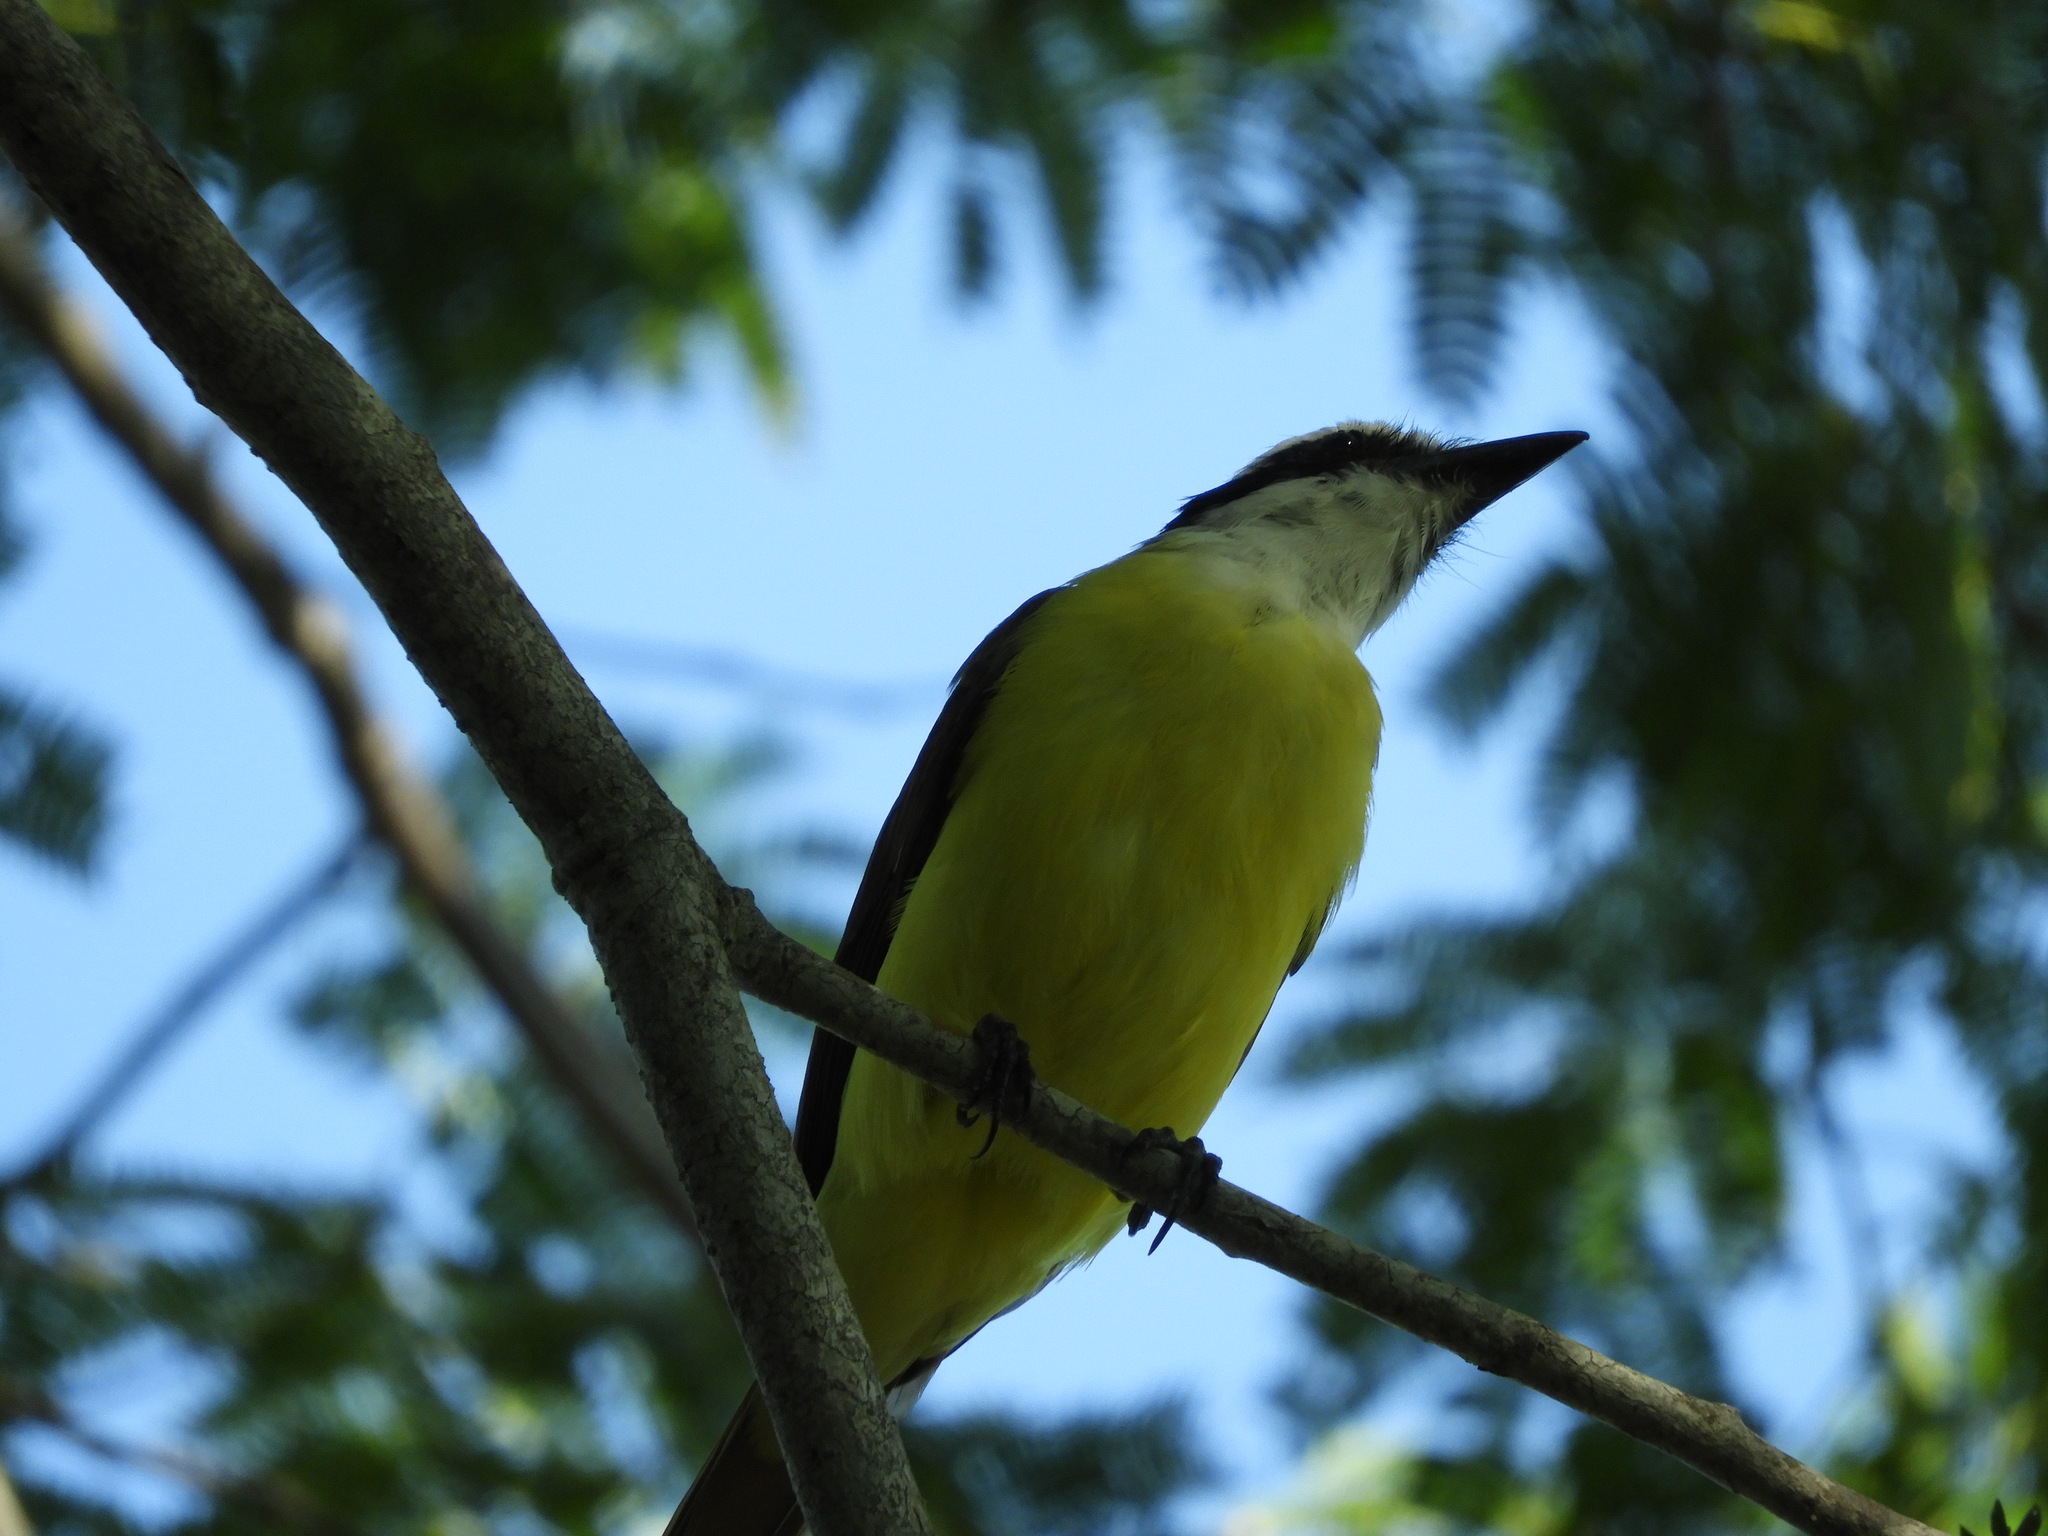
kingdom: Animalia
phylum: Chordata
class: Aves
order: Passeriformes
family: Tyrannidae
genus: Pitangus
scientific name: Pitangus sulphuratus
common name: Great kiskadee
